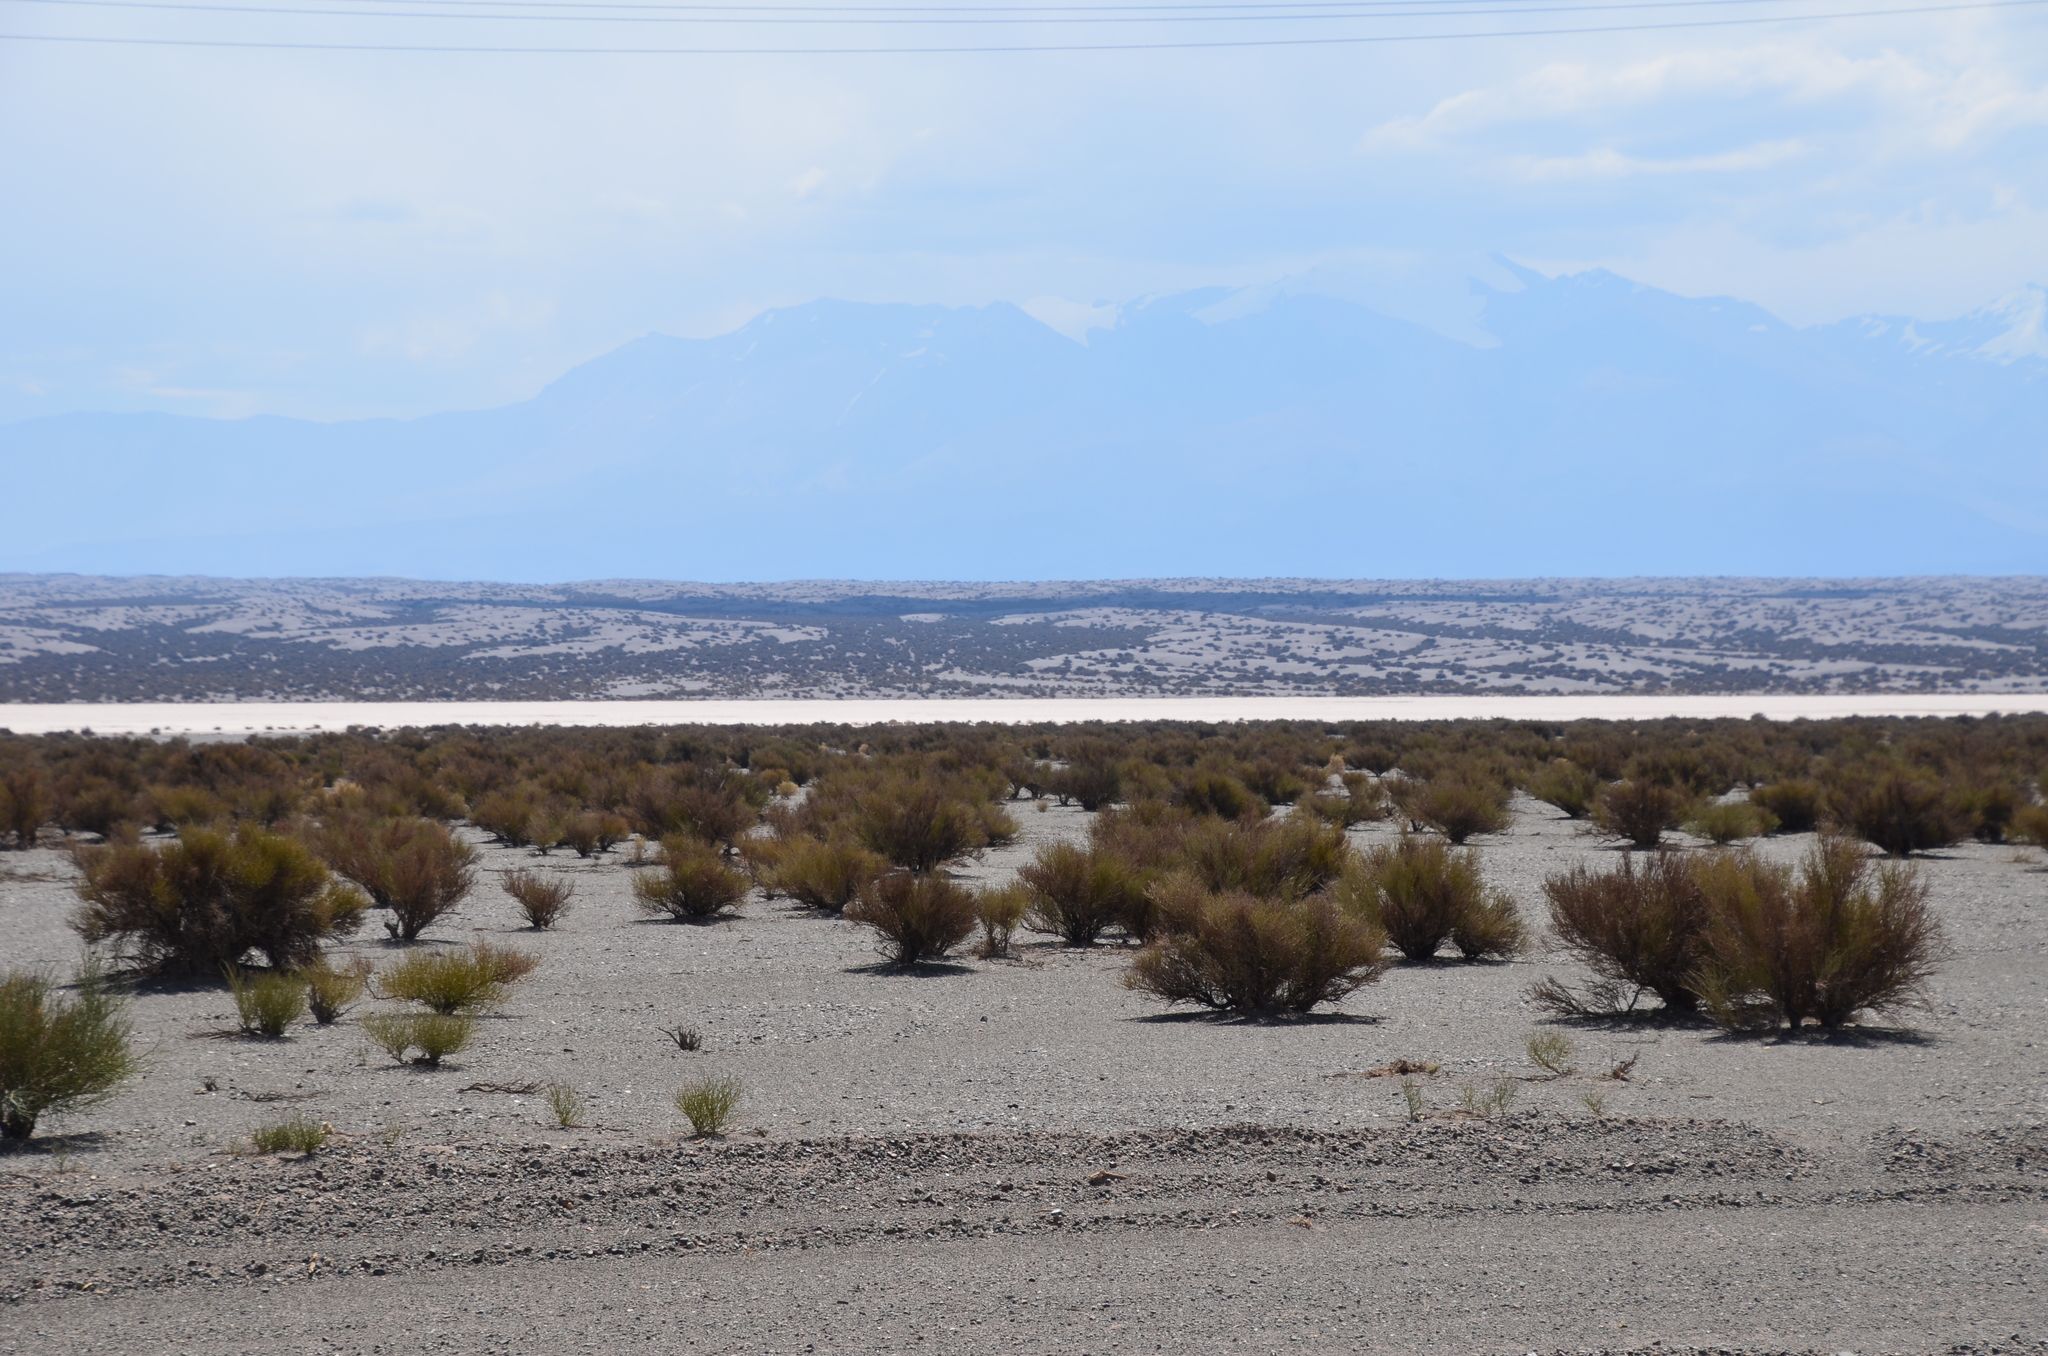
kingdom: Plantae
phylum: Tracheophyta
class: Magnoliopsida
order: Zygophyllales
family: Zygophyllaceae
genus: Bulnesia
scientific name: Bulnesia retama
